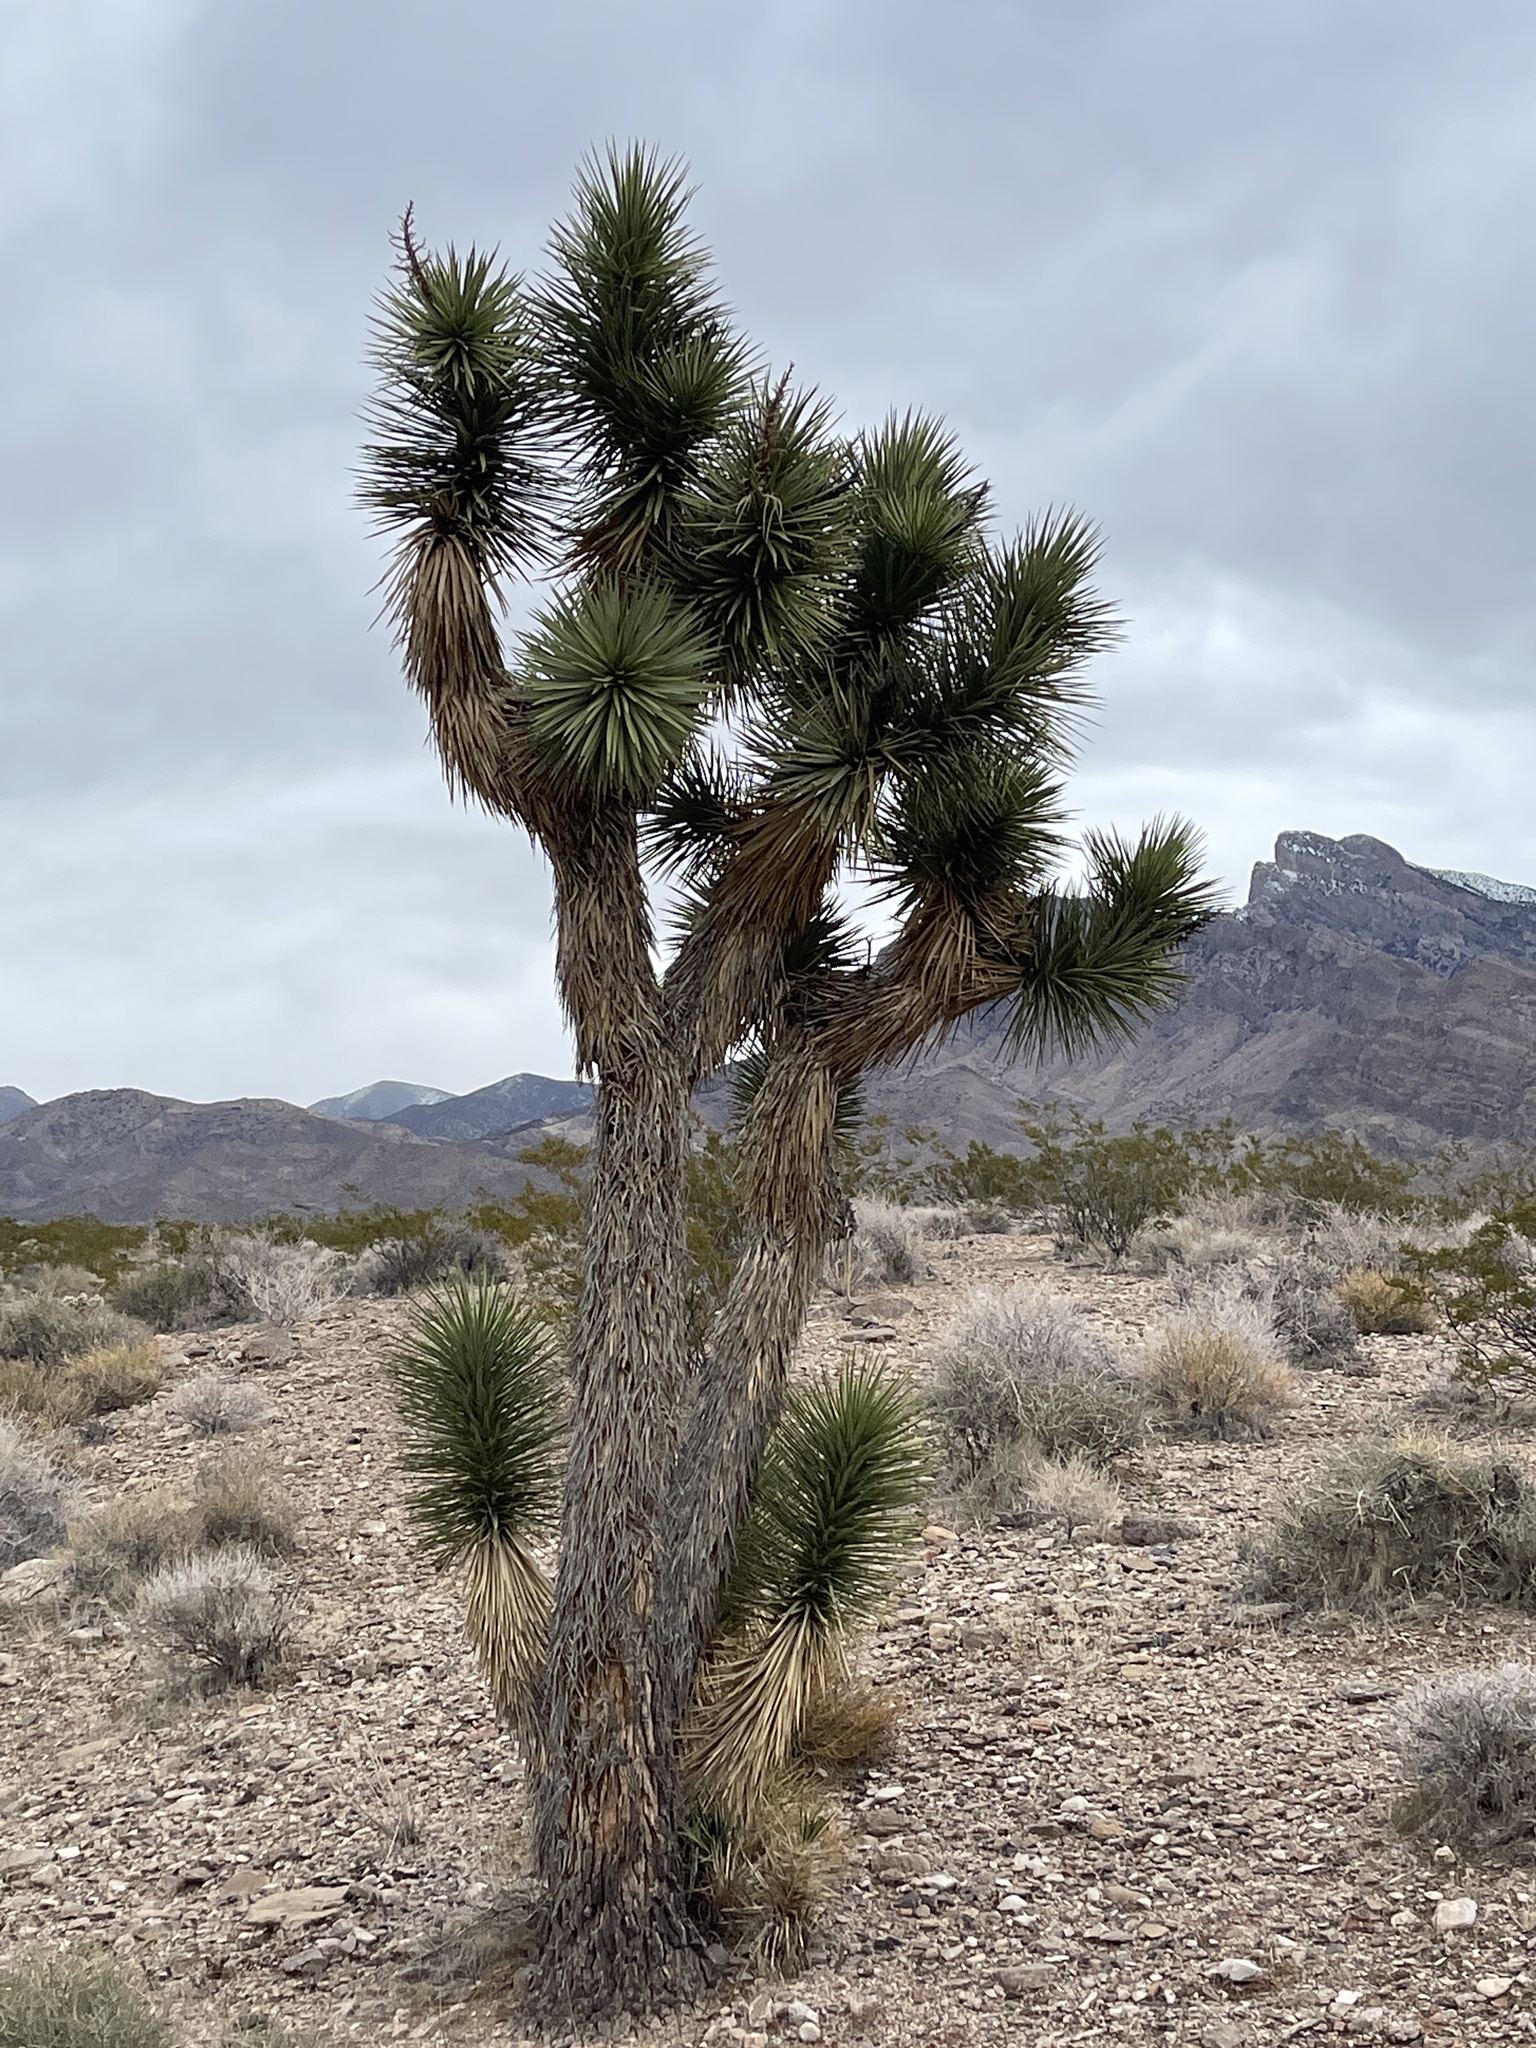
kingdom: Plantae
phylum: Tracheophyta
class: Liliopsida
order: Asparagales
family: Asparagaceae
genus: Yucca
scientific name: Yucca brevifolia
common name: Joshua tree
